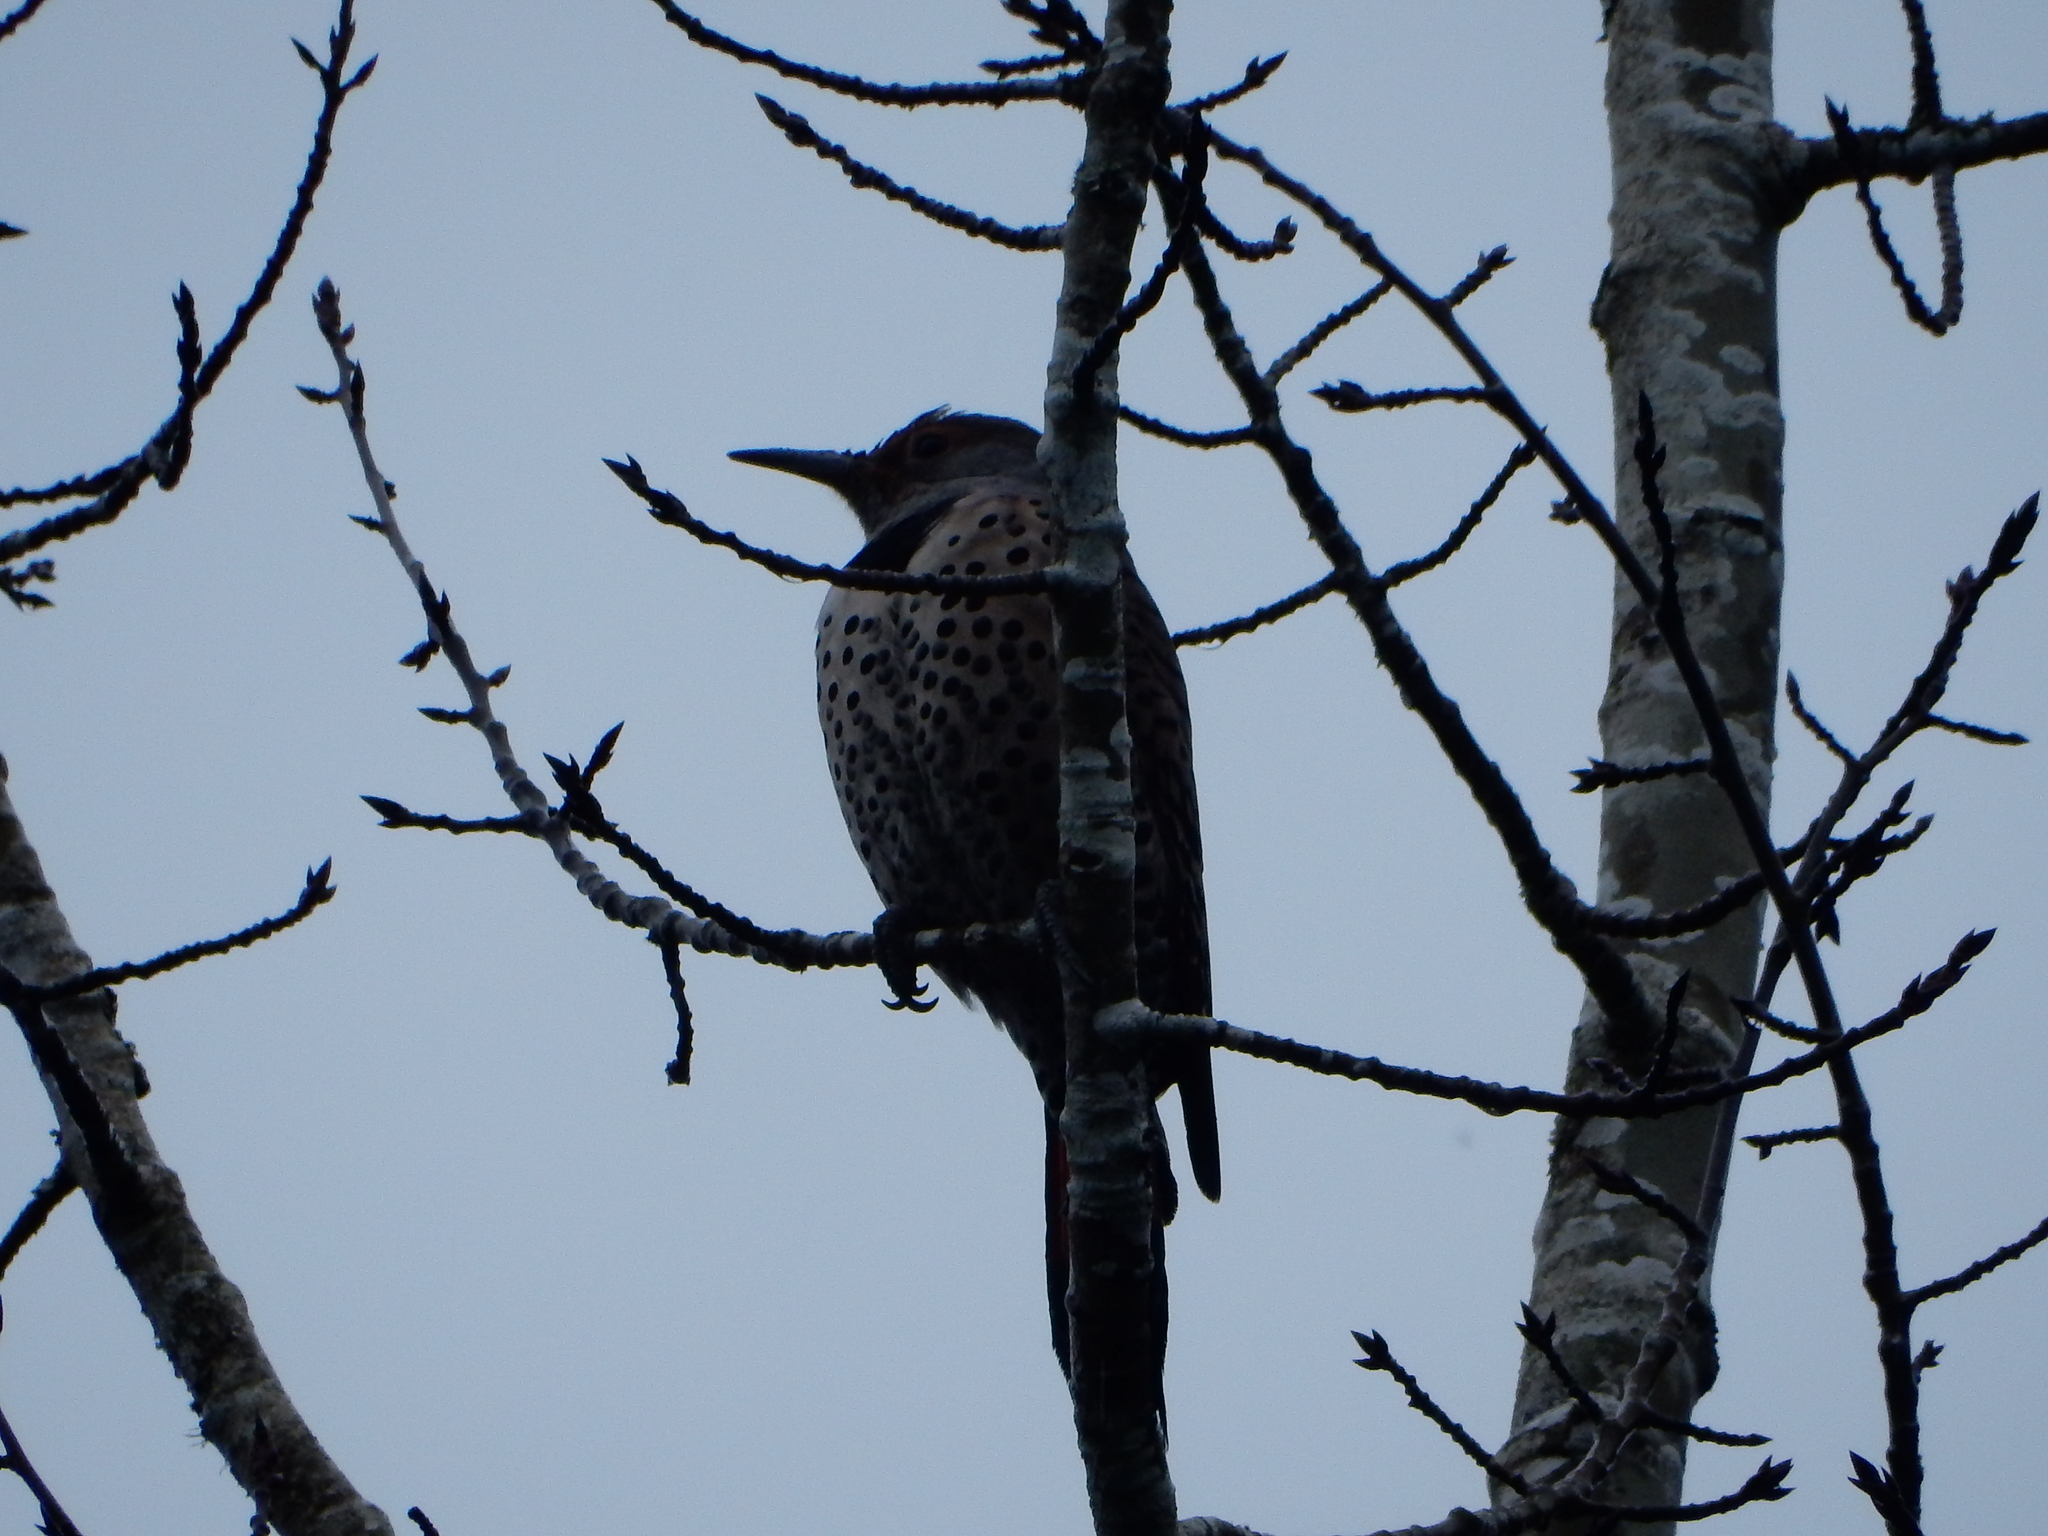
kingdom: Animalia
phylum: Chordata
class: Aves
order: Piciformes
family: Picidae
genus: Colaptes
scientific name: Colaptes auratus
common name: Northern flicker
